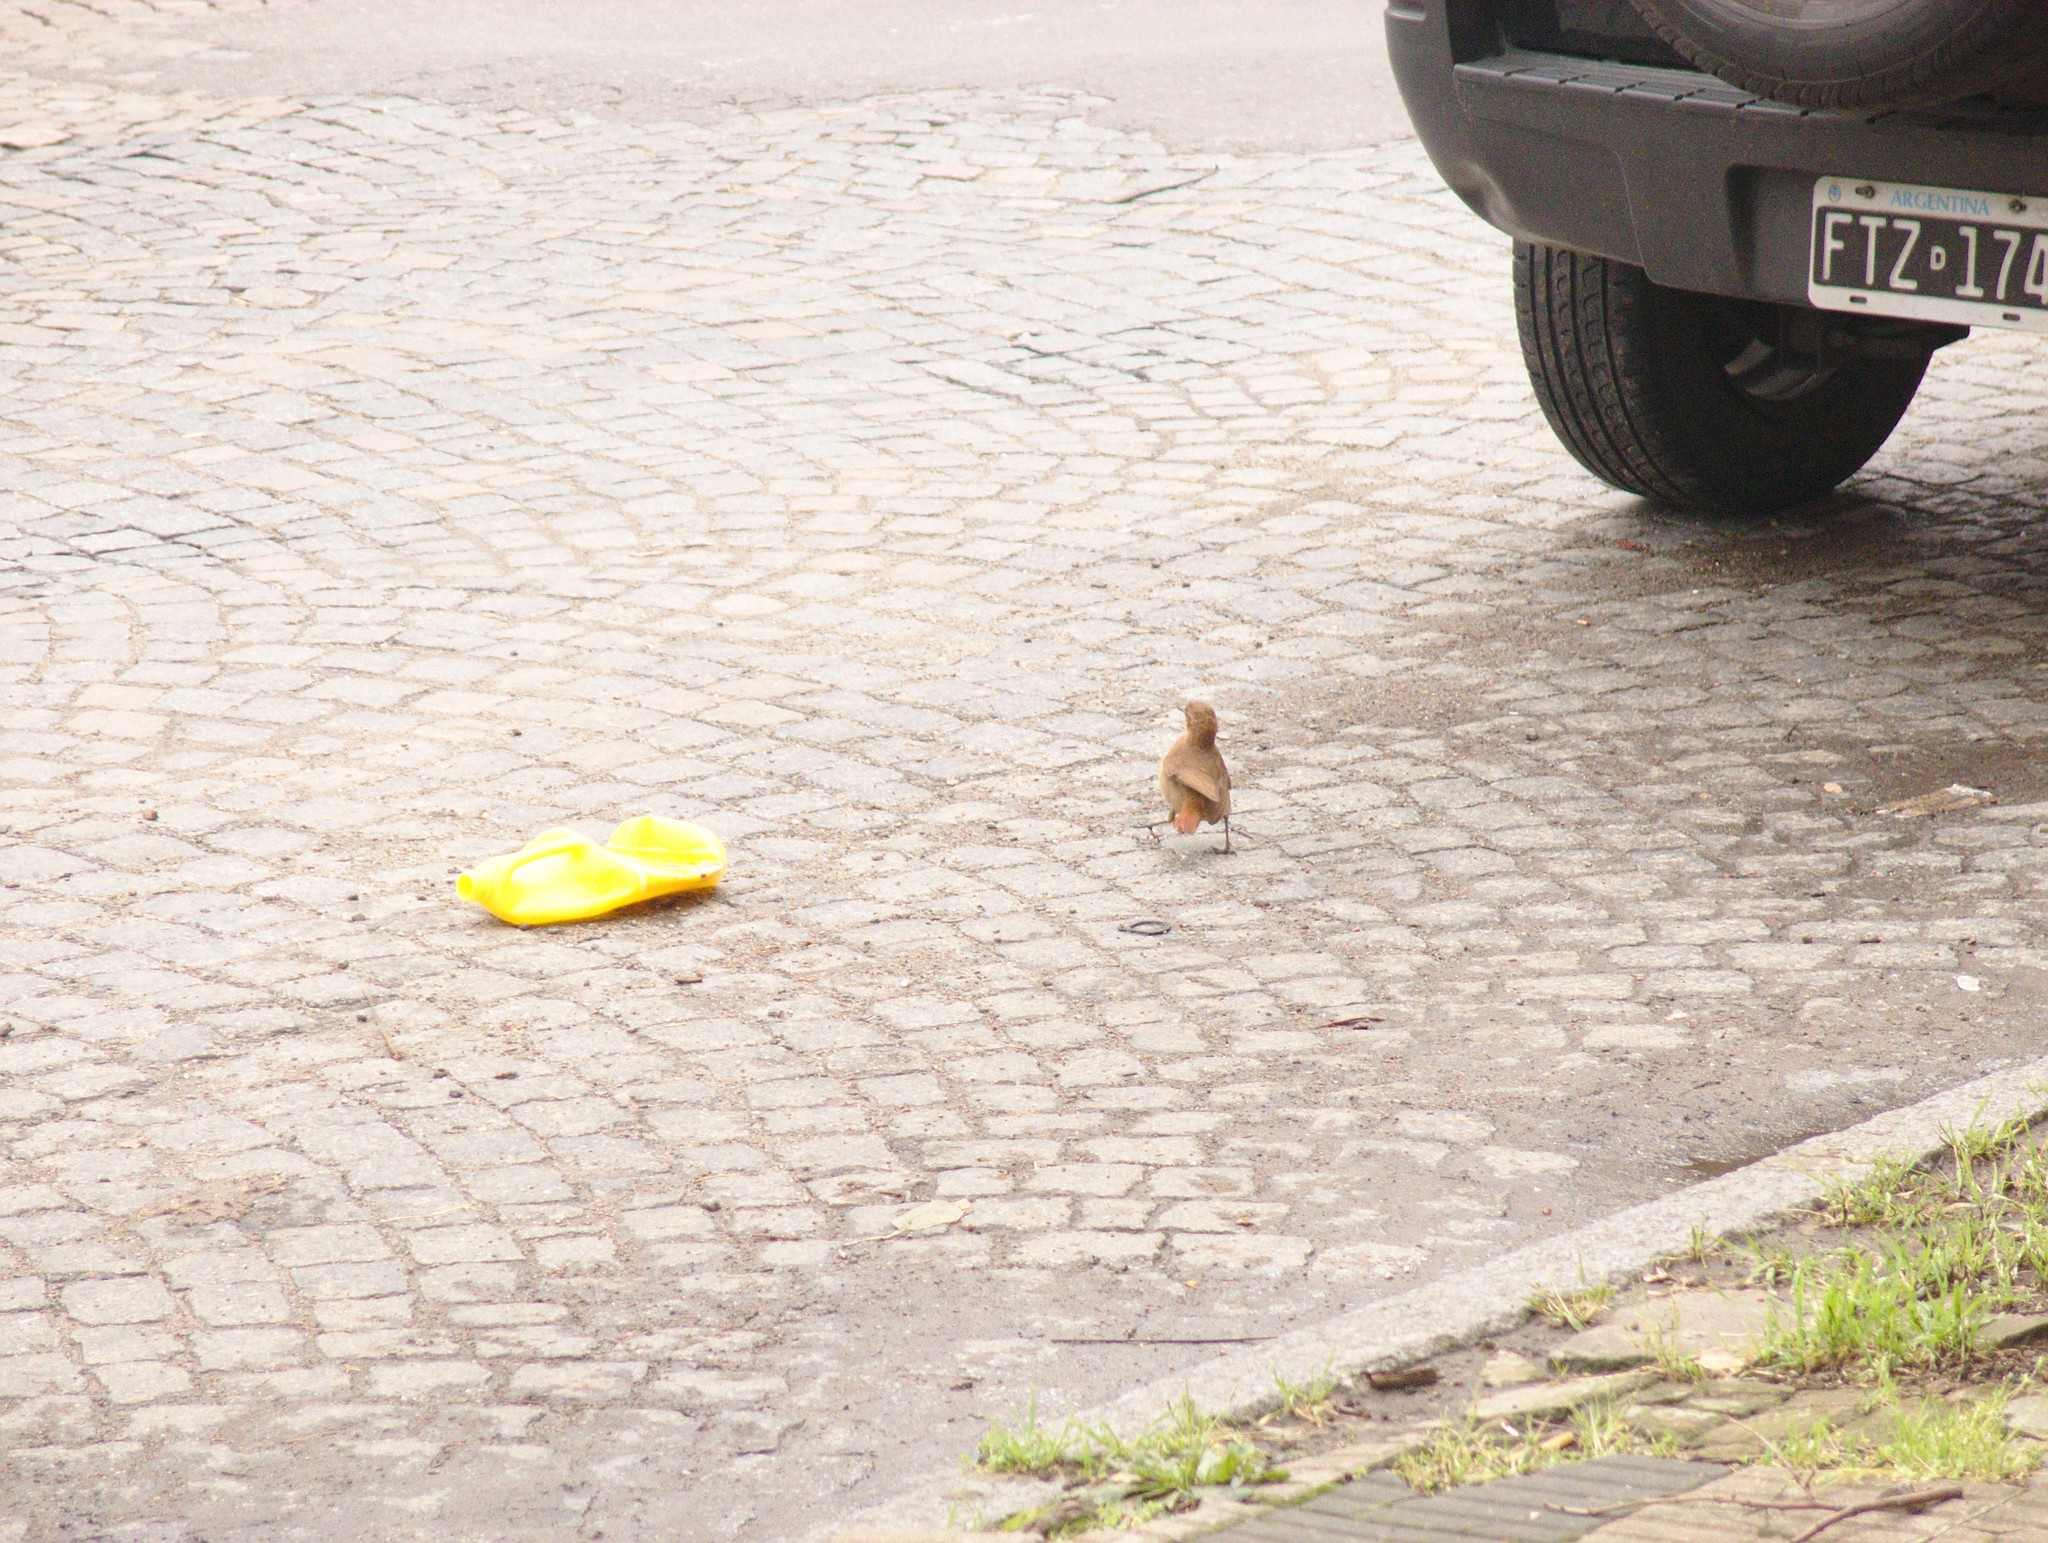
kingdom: Animalia
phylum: Chordata
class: Aves
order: Passeriformes
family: Furnariidae
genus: Furnarius
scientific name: Furnarius rufus
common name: Rufous hornero
